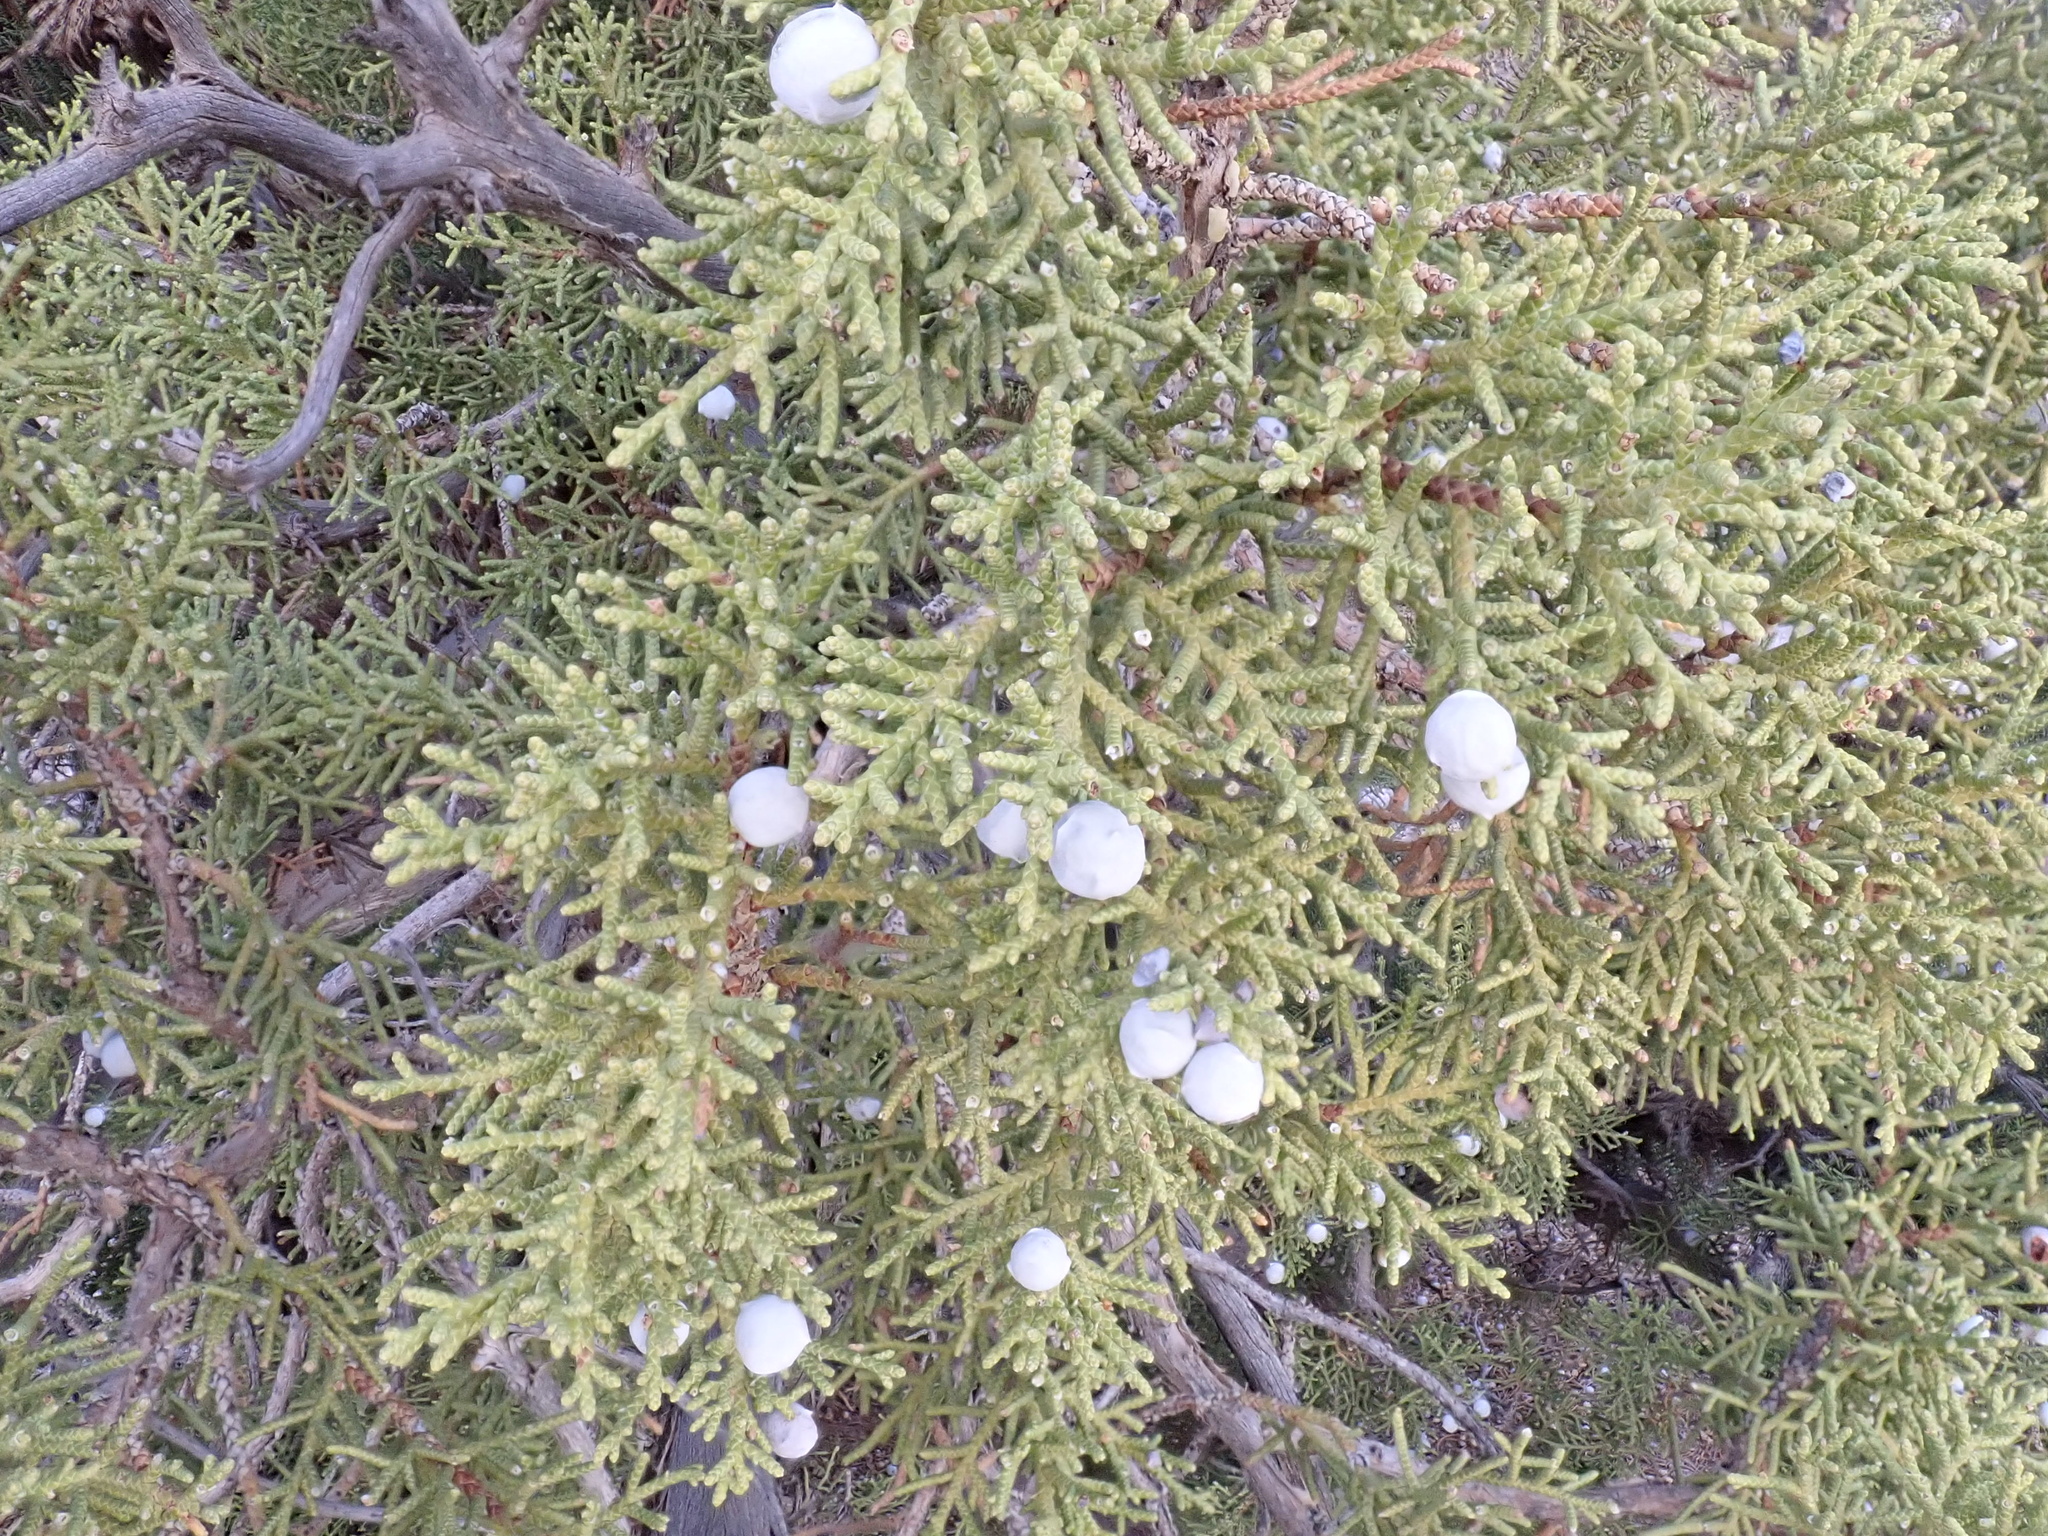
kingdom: Plantae
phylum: Tracheophyta
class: Pinopsida
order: Pinales
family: Cupressaceae
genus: Juniperus
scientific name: Juniperus osteosperma
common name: Utah juniper
